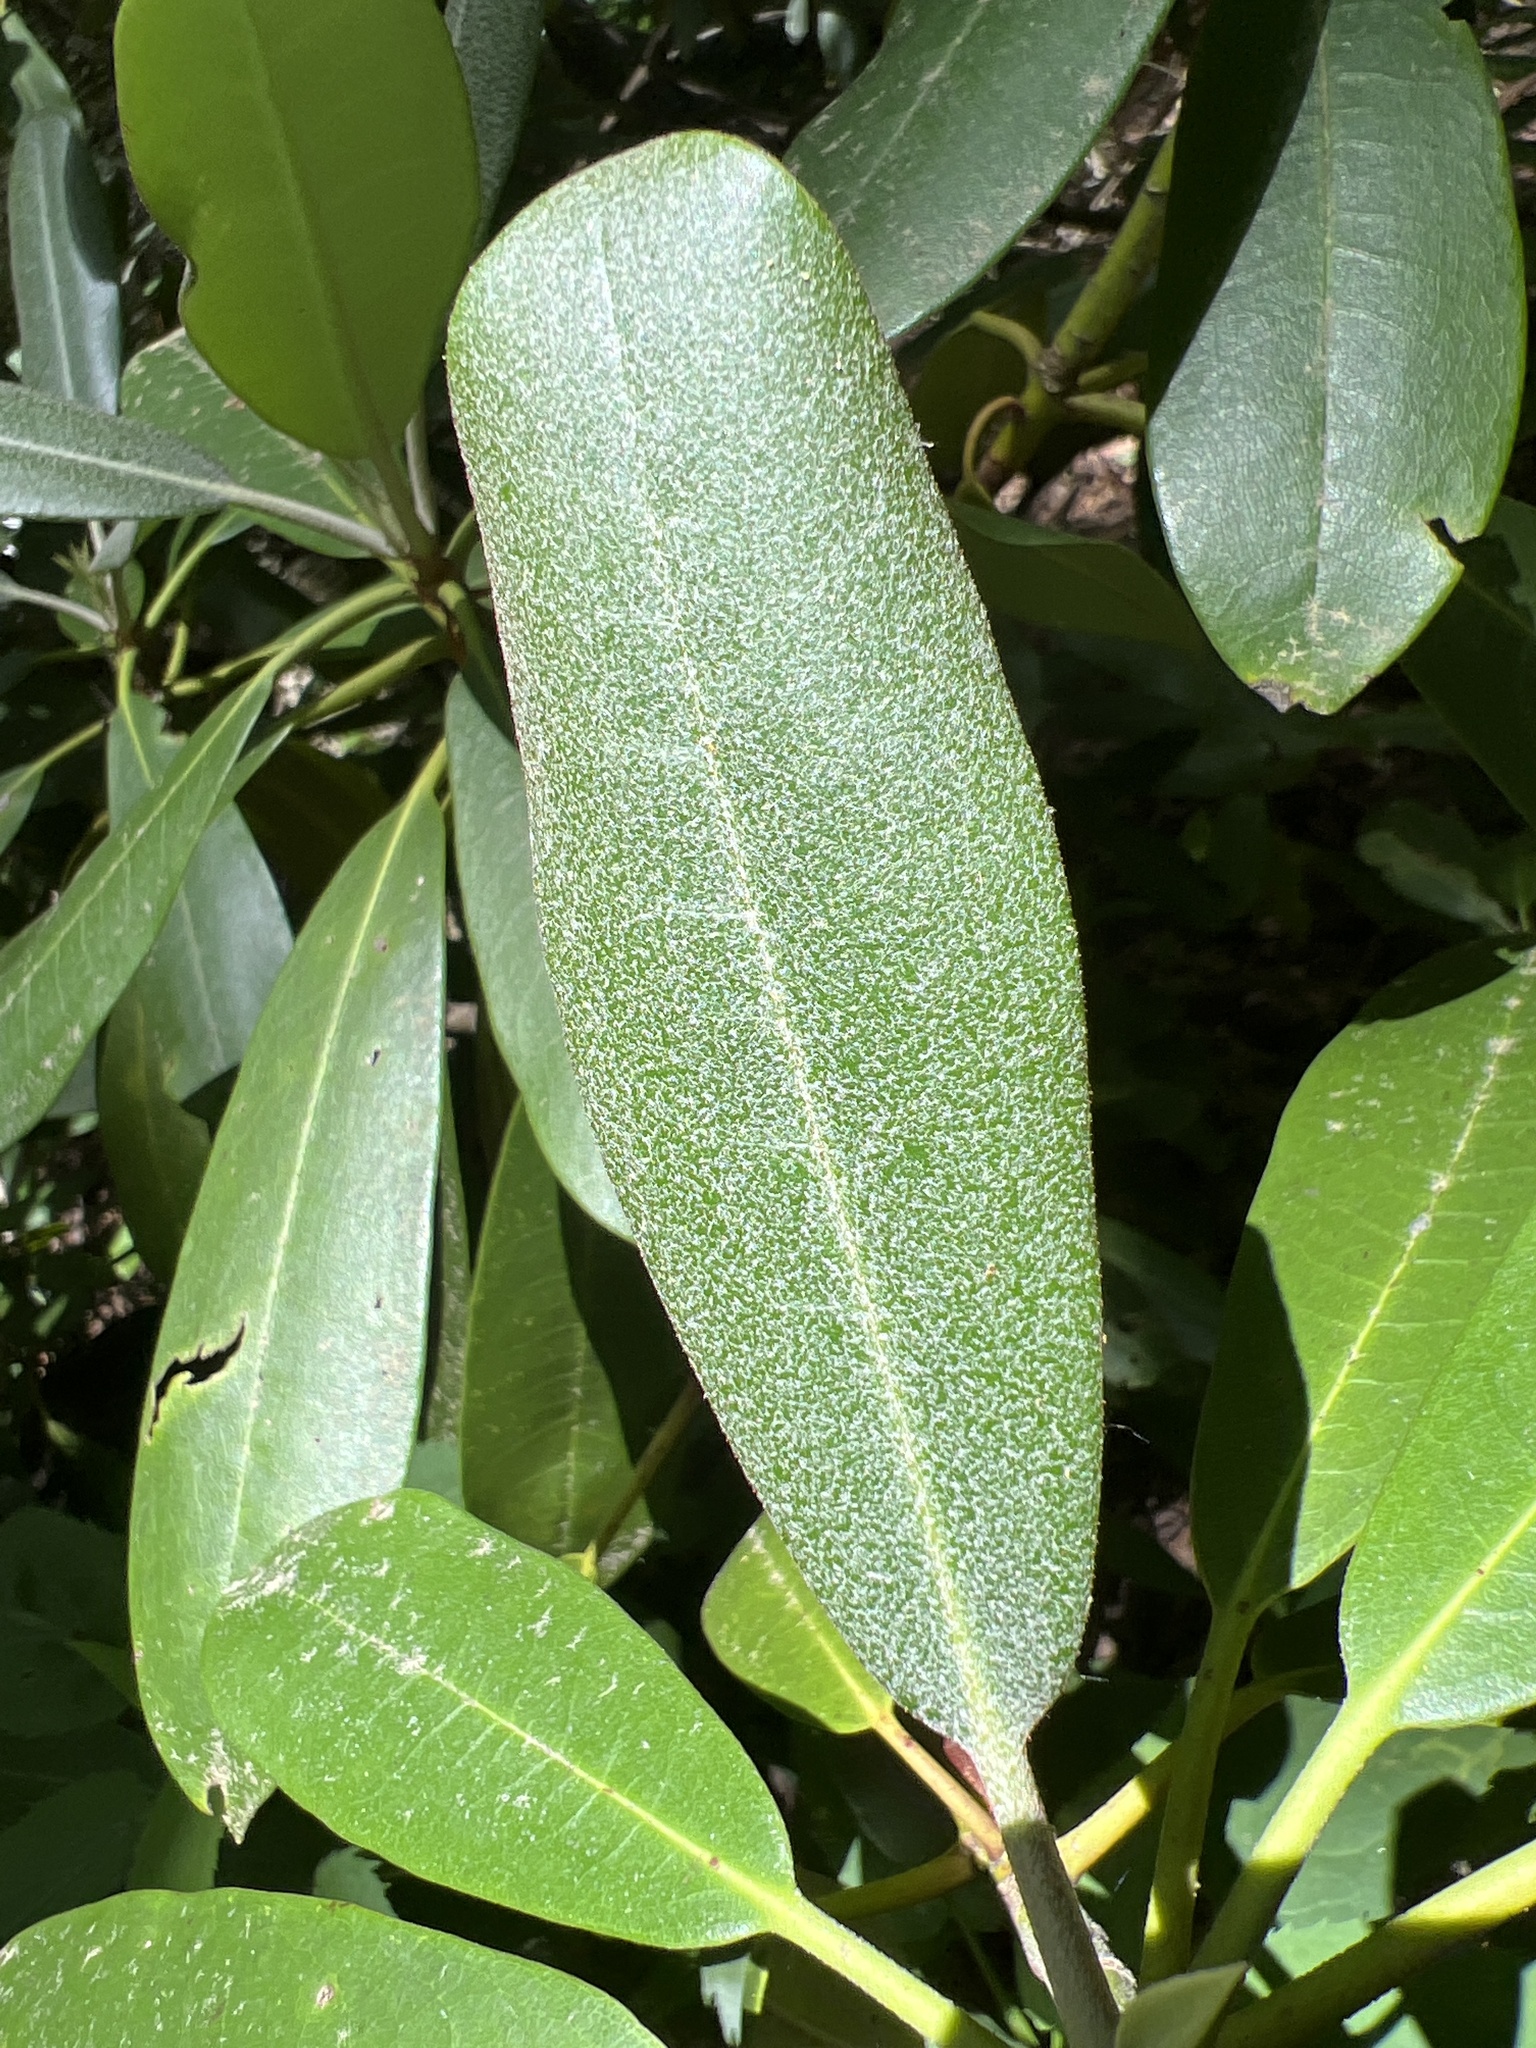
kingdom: Plantae
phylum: Tracheophyta
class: Magnoliopsida
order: Ericales
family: Ericaceae
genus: Rhododendron
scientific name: Rhododendron maximum
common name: Great rhododendron
